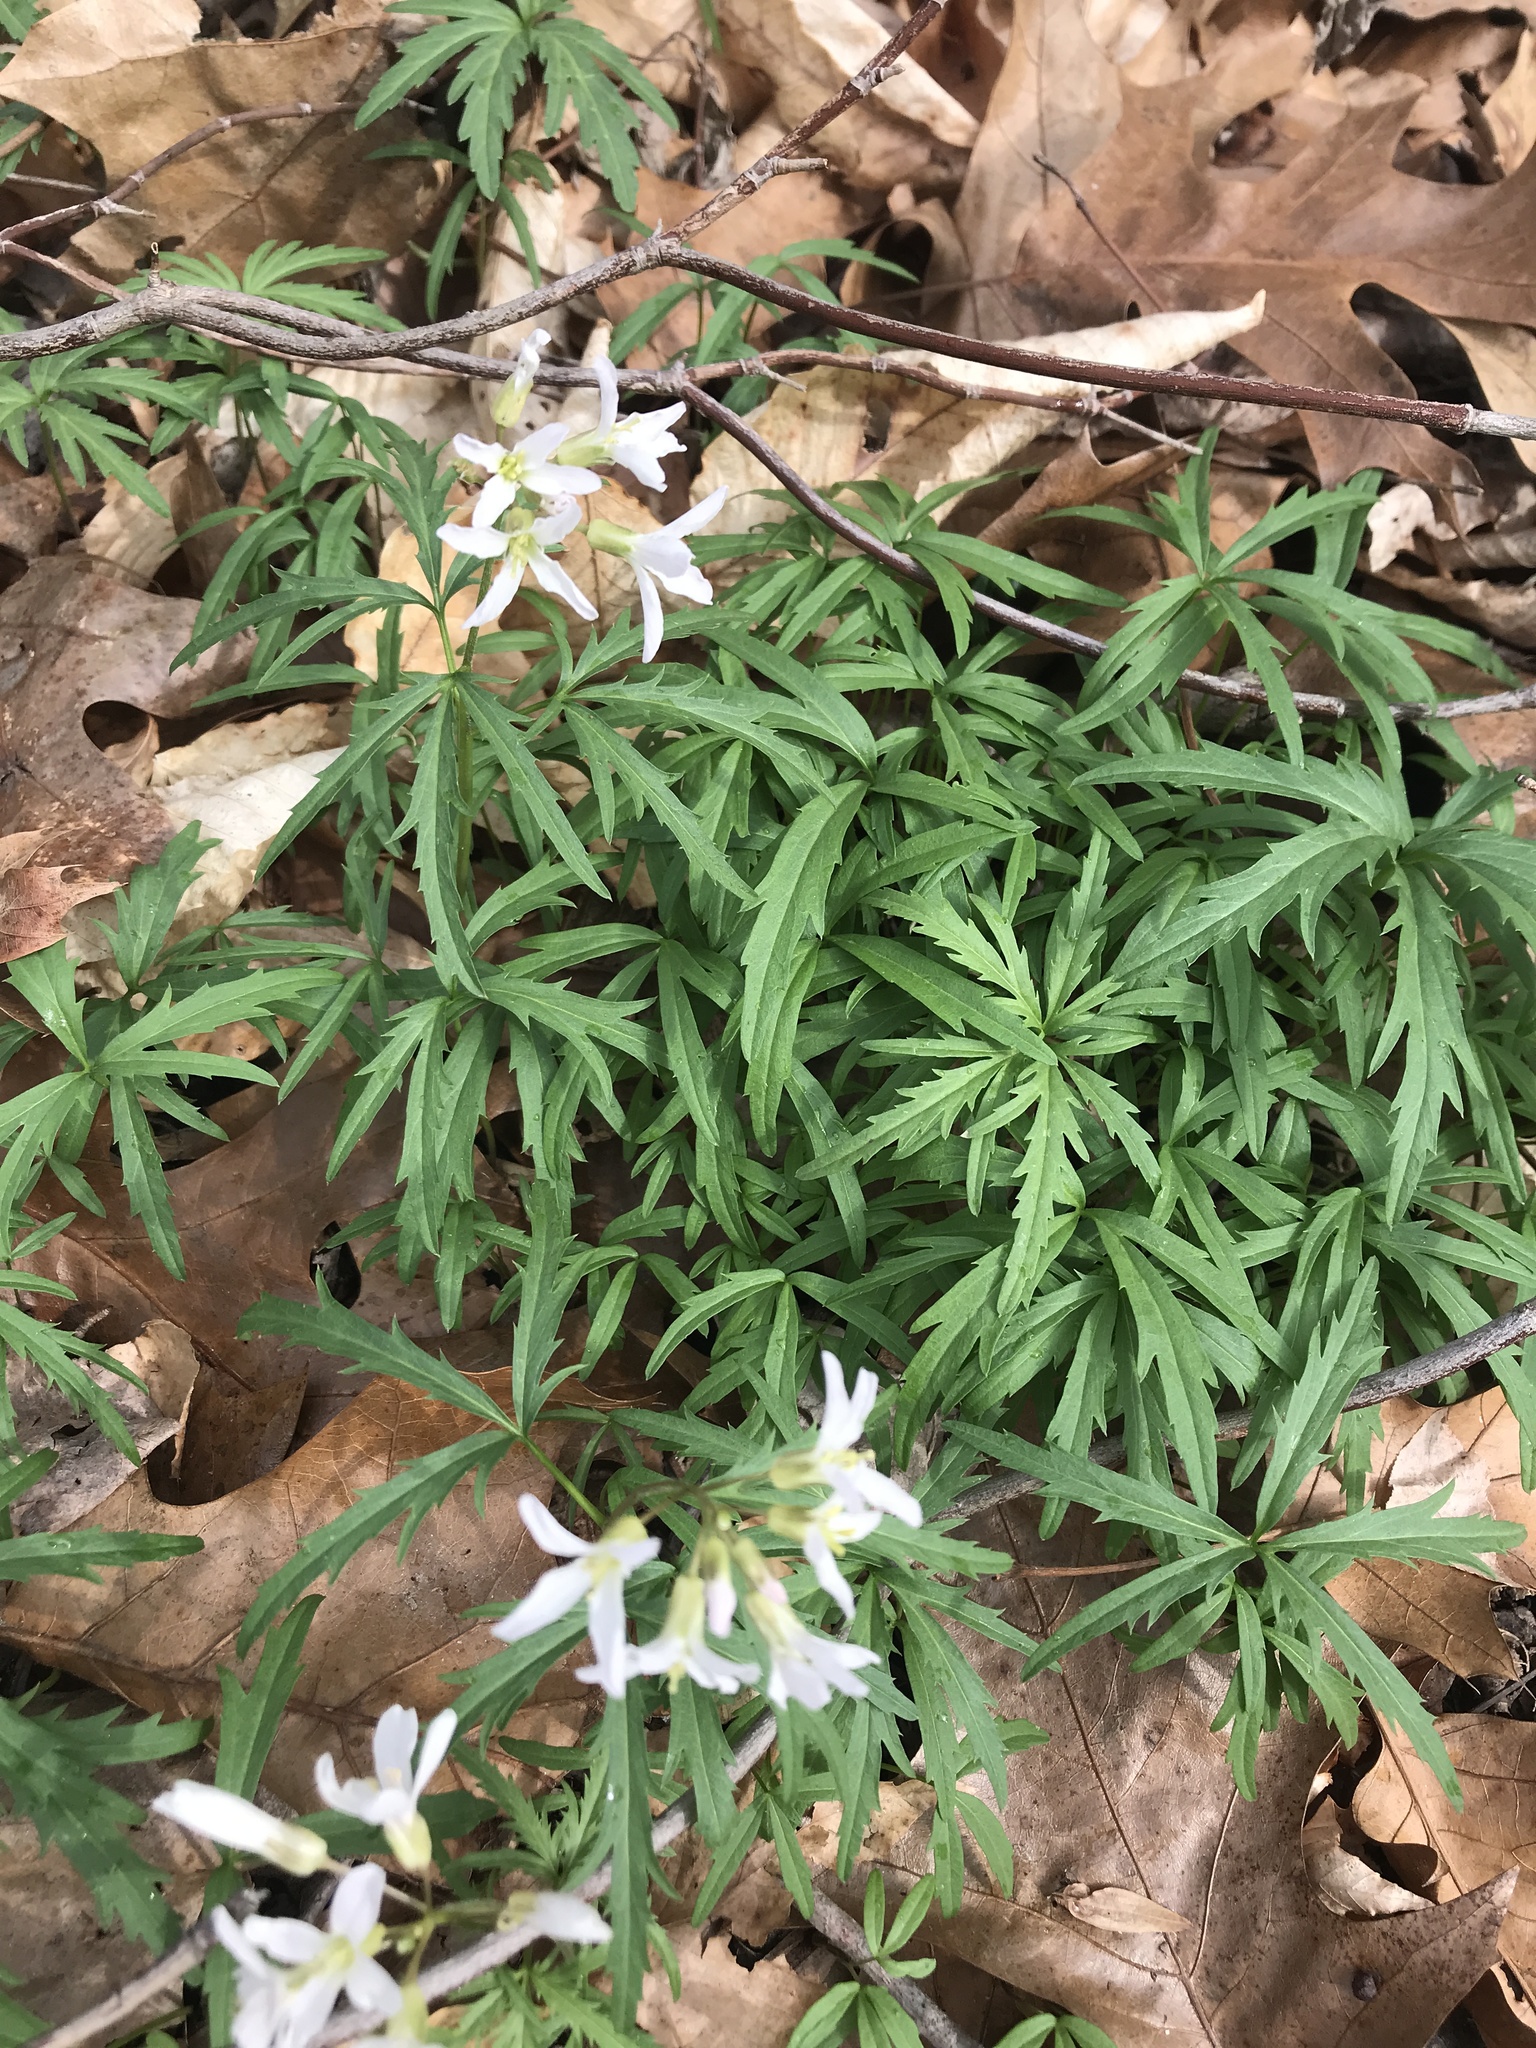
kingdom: Plantae
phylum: Tracheophyta
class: Magnoliopsida
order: Brassicales
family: Brassicaceae
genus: Cardamine
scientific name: Cardamine concatenata
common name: Cut-leaf toothcup
